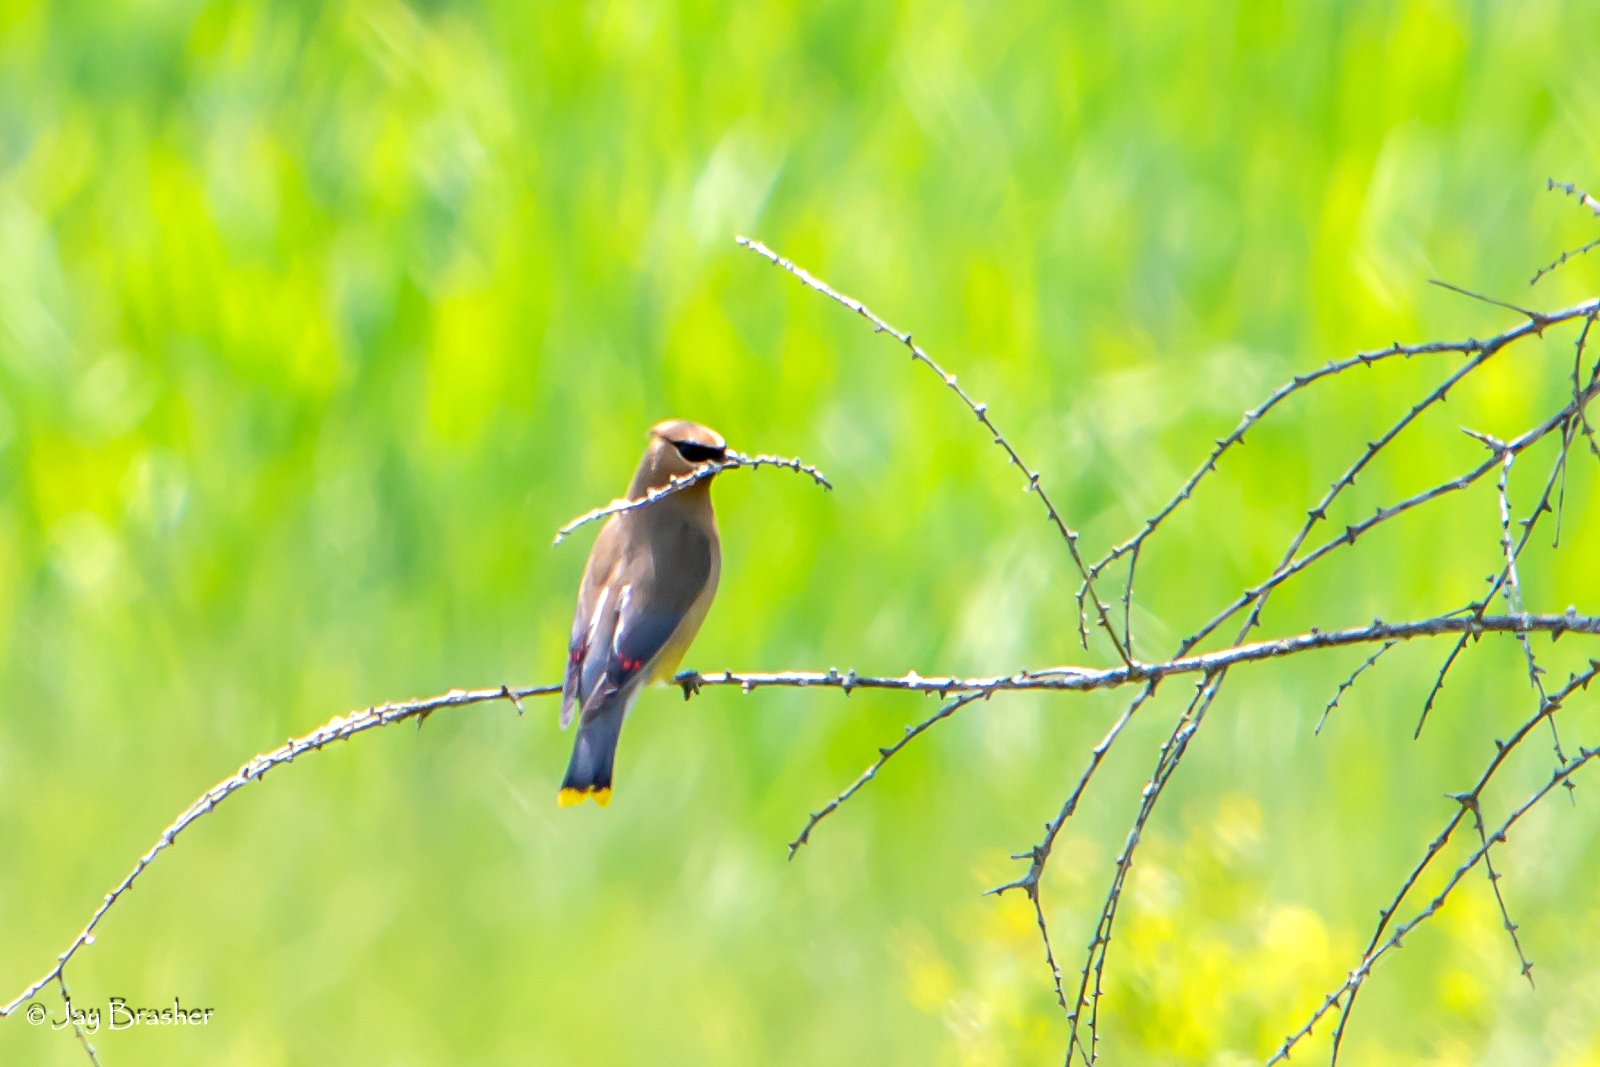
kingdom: Animalia
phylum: Chordata
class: Aves
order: Passeriformes
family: Bombycillidae
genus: Bombycilla
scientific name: Bombycilla cedrorum
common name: Cedar waxwing
